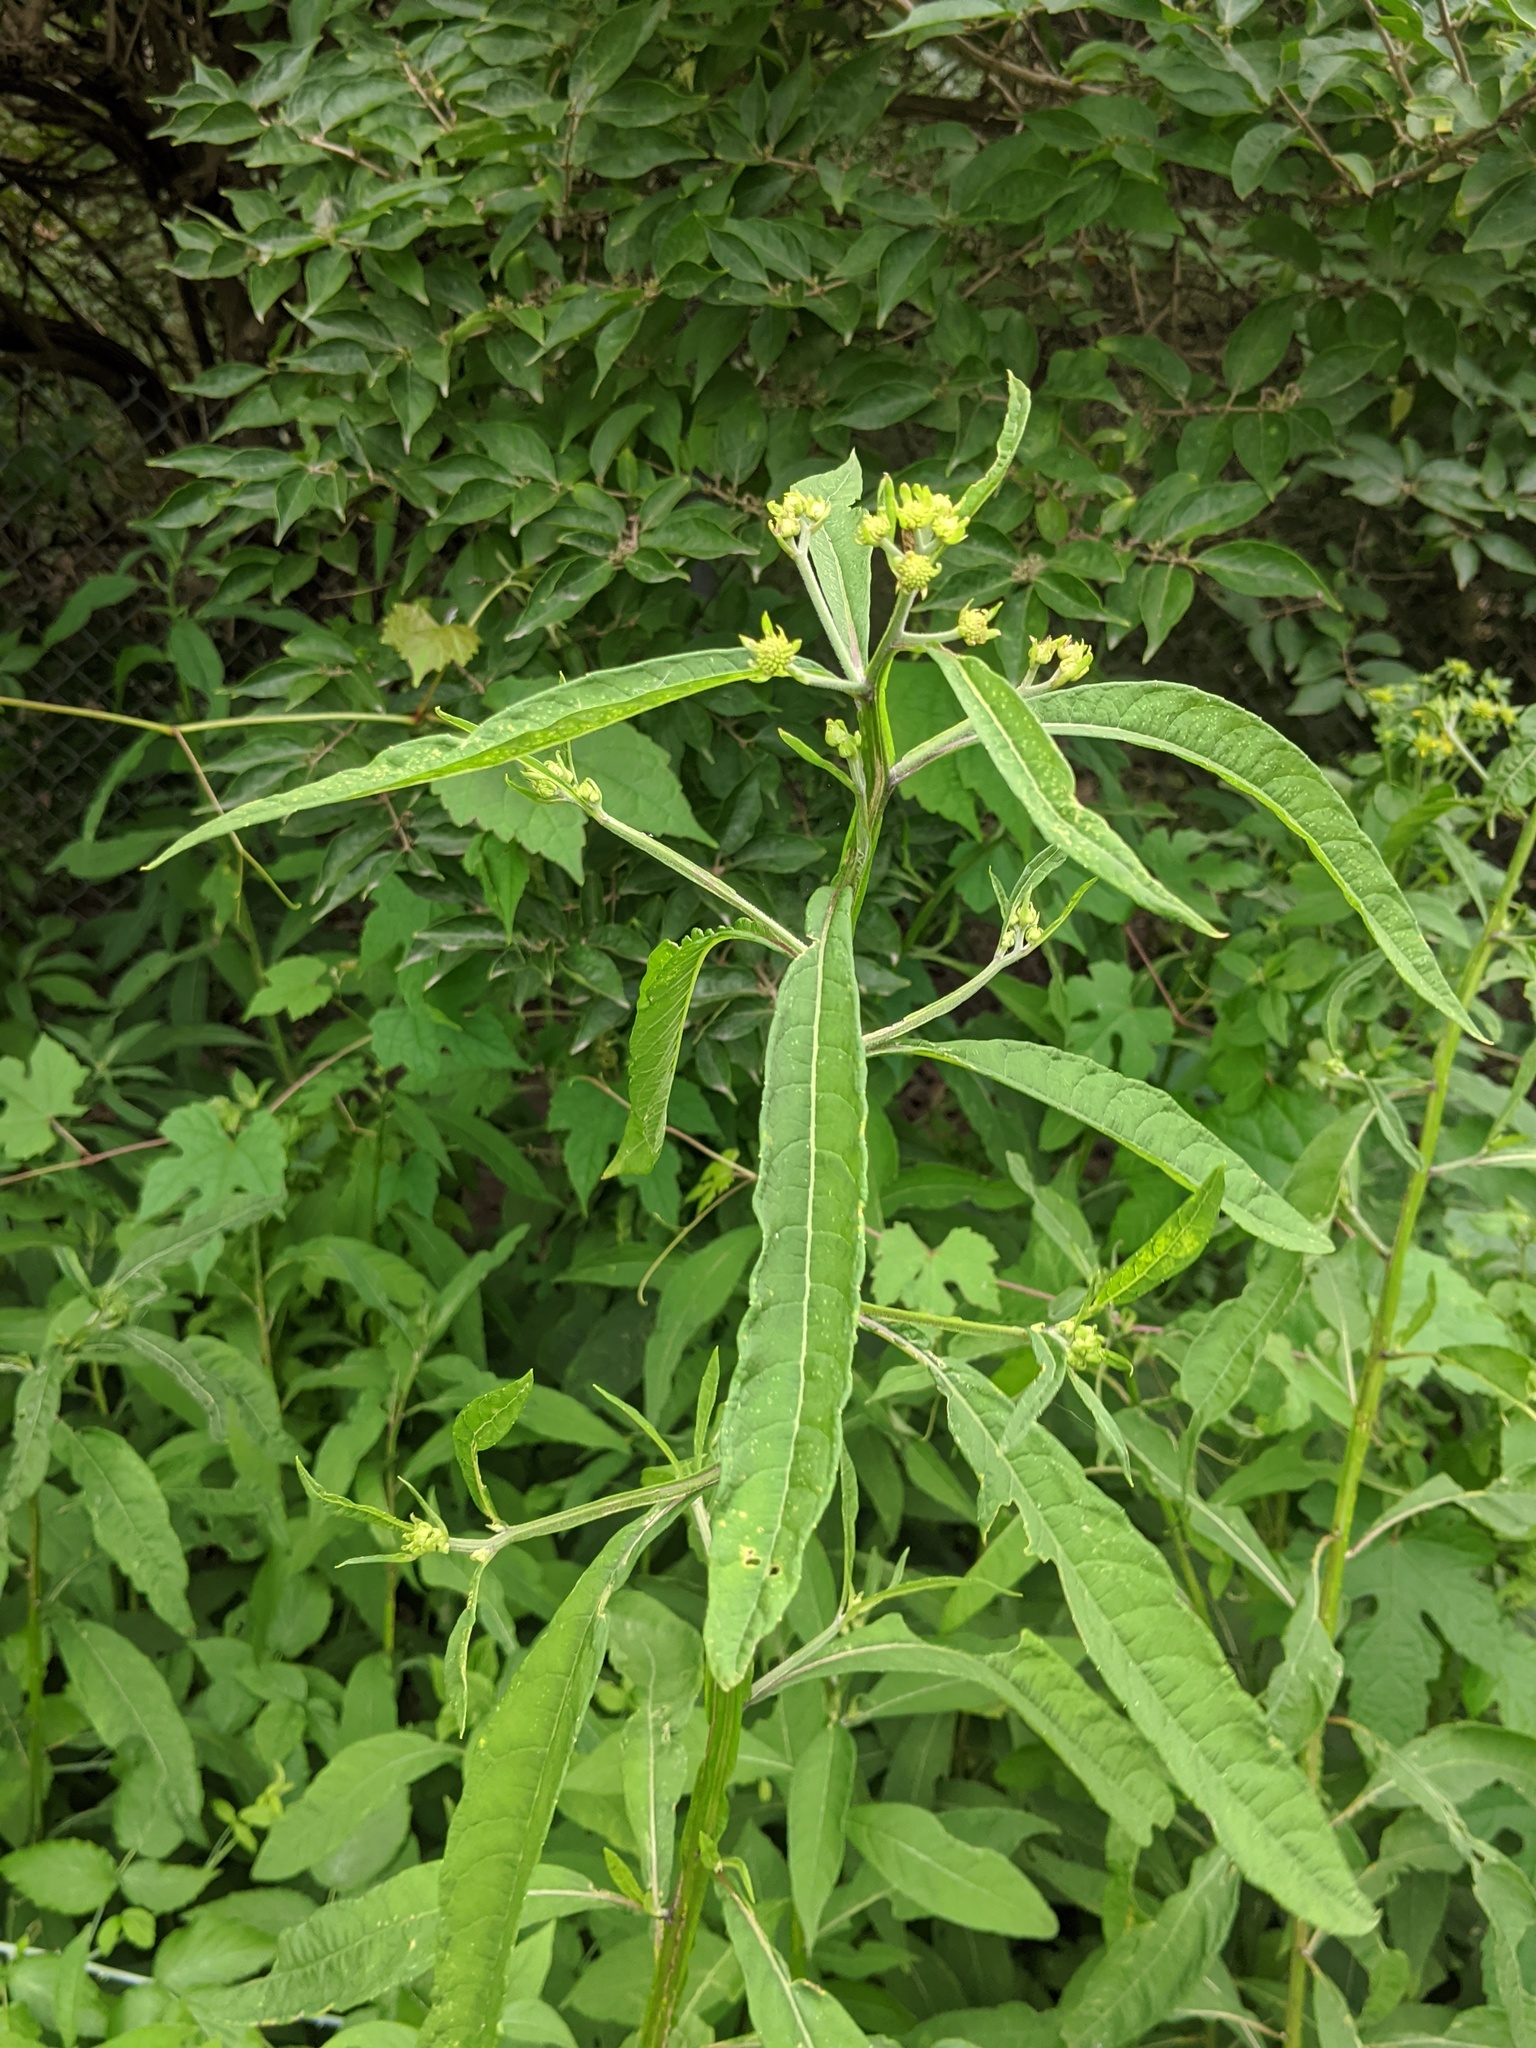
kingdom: Plantae
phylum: Tracheophyta
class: Magnoliopsida
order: Asterales
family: Asteraceae
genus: Verbesina
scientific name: Verbesina alternifolia
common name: Wingstem
